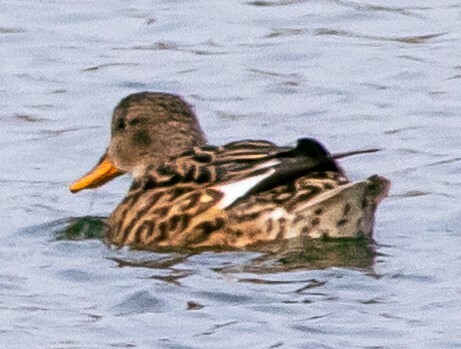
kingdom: Animalia
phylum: Chordata
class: Aves
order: Anseriformes
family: Anatidae
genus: Mareca
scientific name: Mareca strepera
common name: Gadwall
